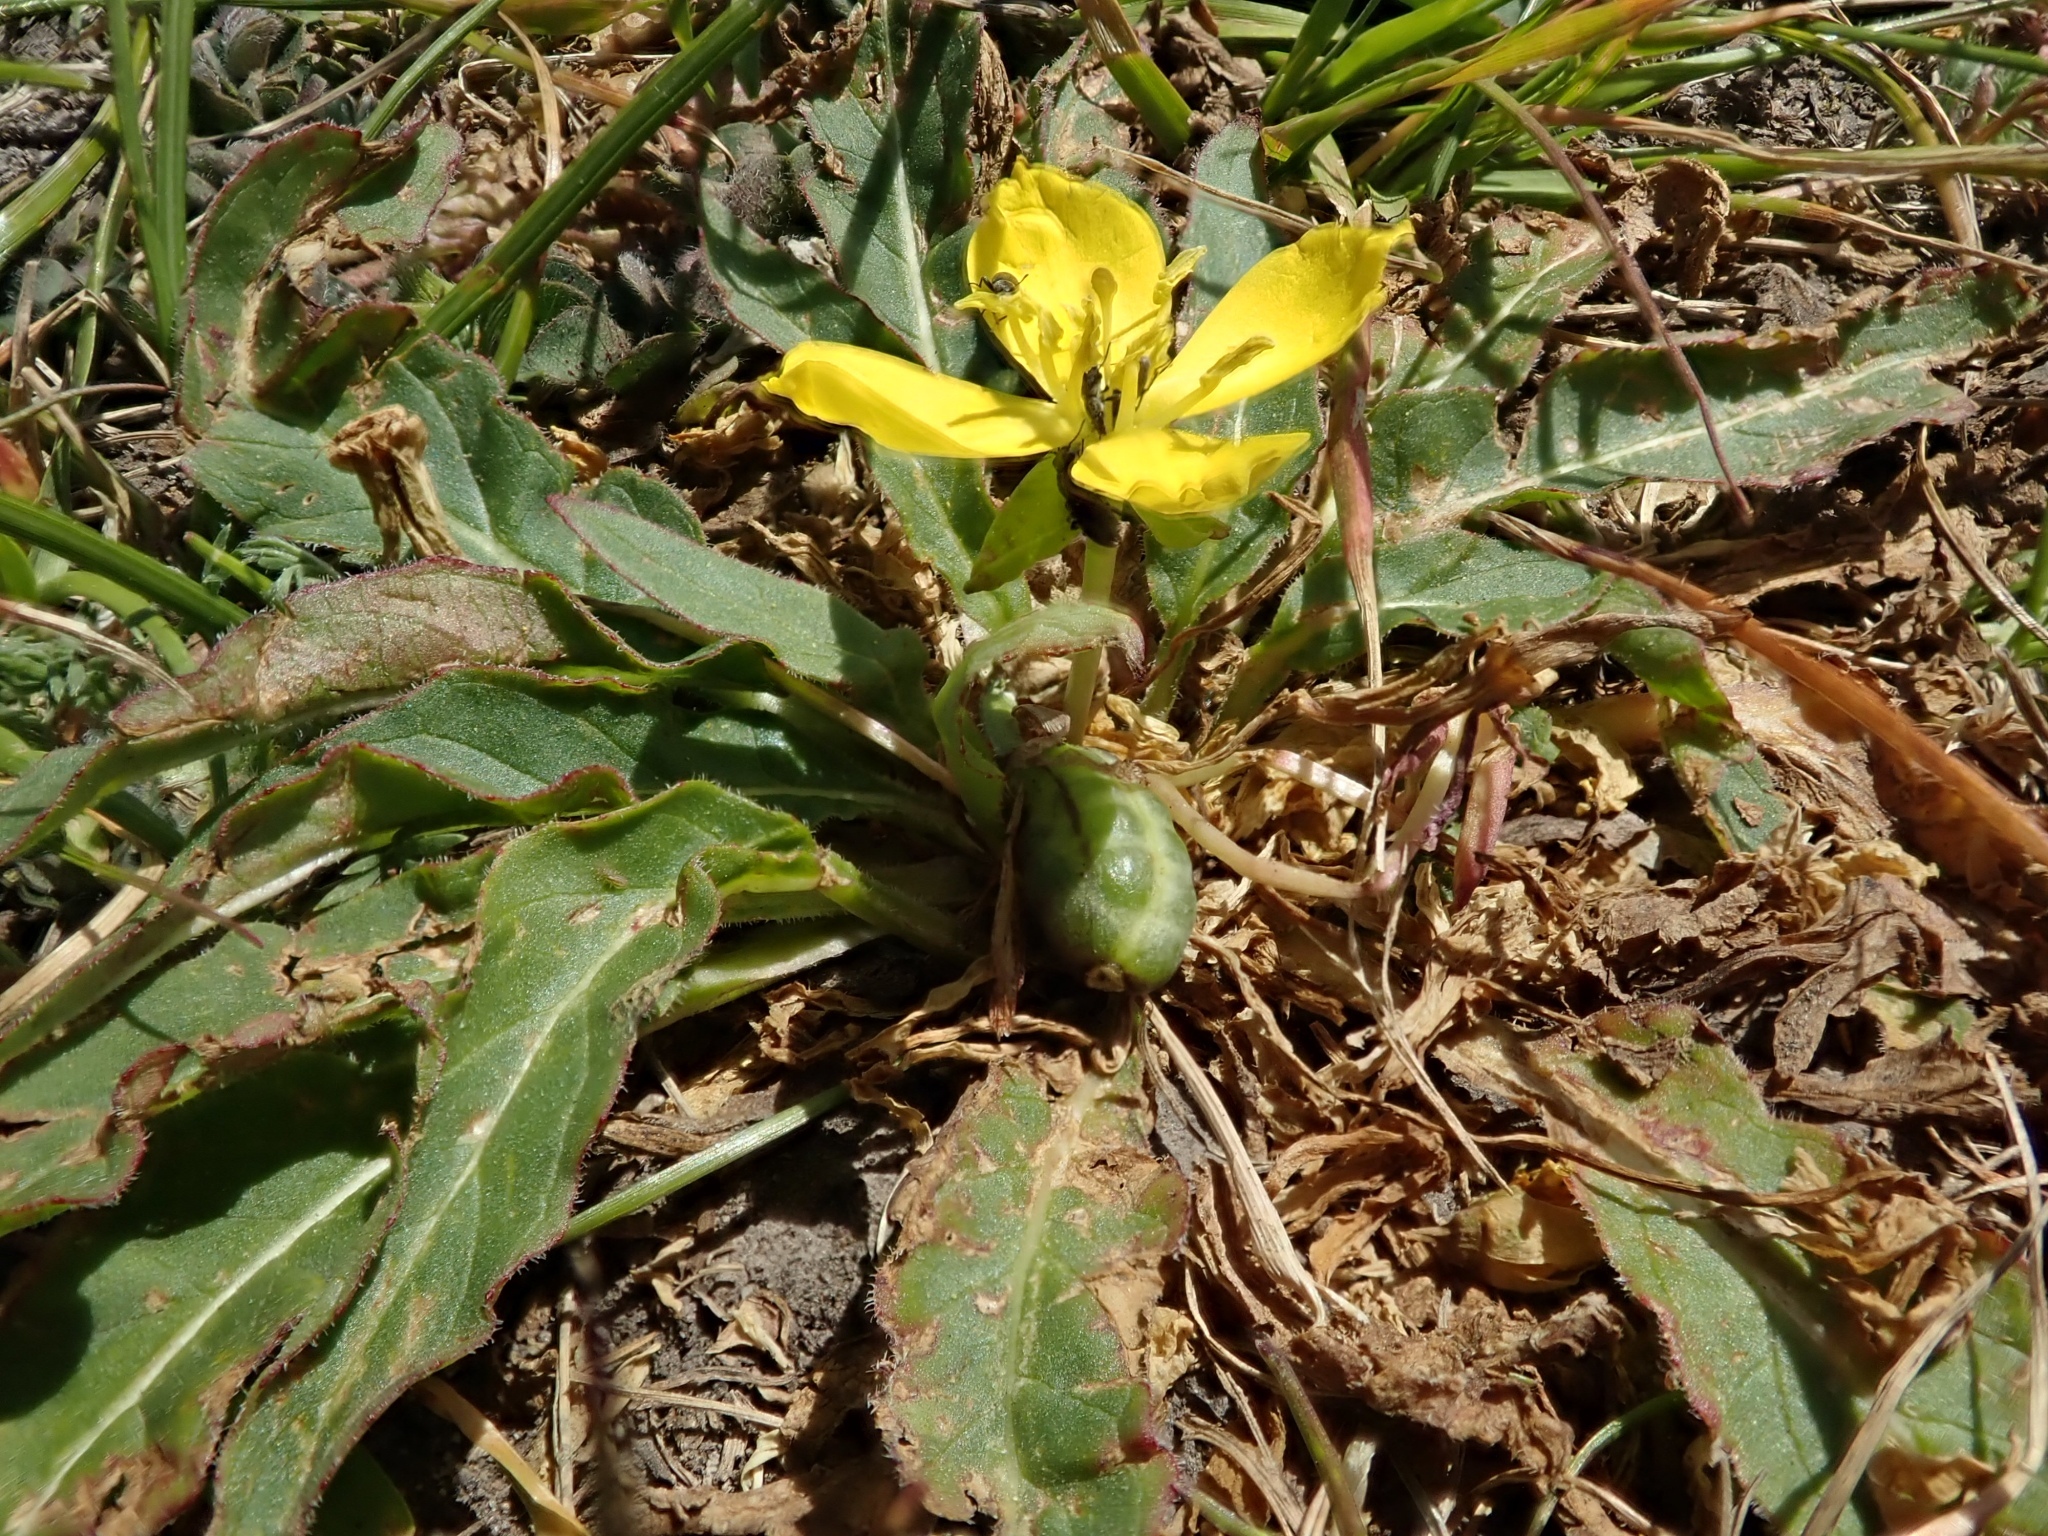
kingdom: Plantae
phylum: Tracheophyta
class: Magnoliopsida
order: Myrtales
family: Onagraceae
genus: Taraxia
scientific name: Taraxia ovata
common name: Goldeneggs
